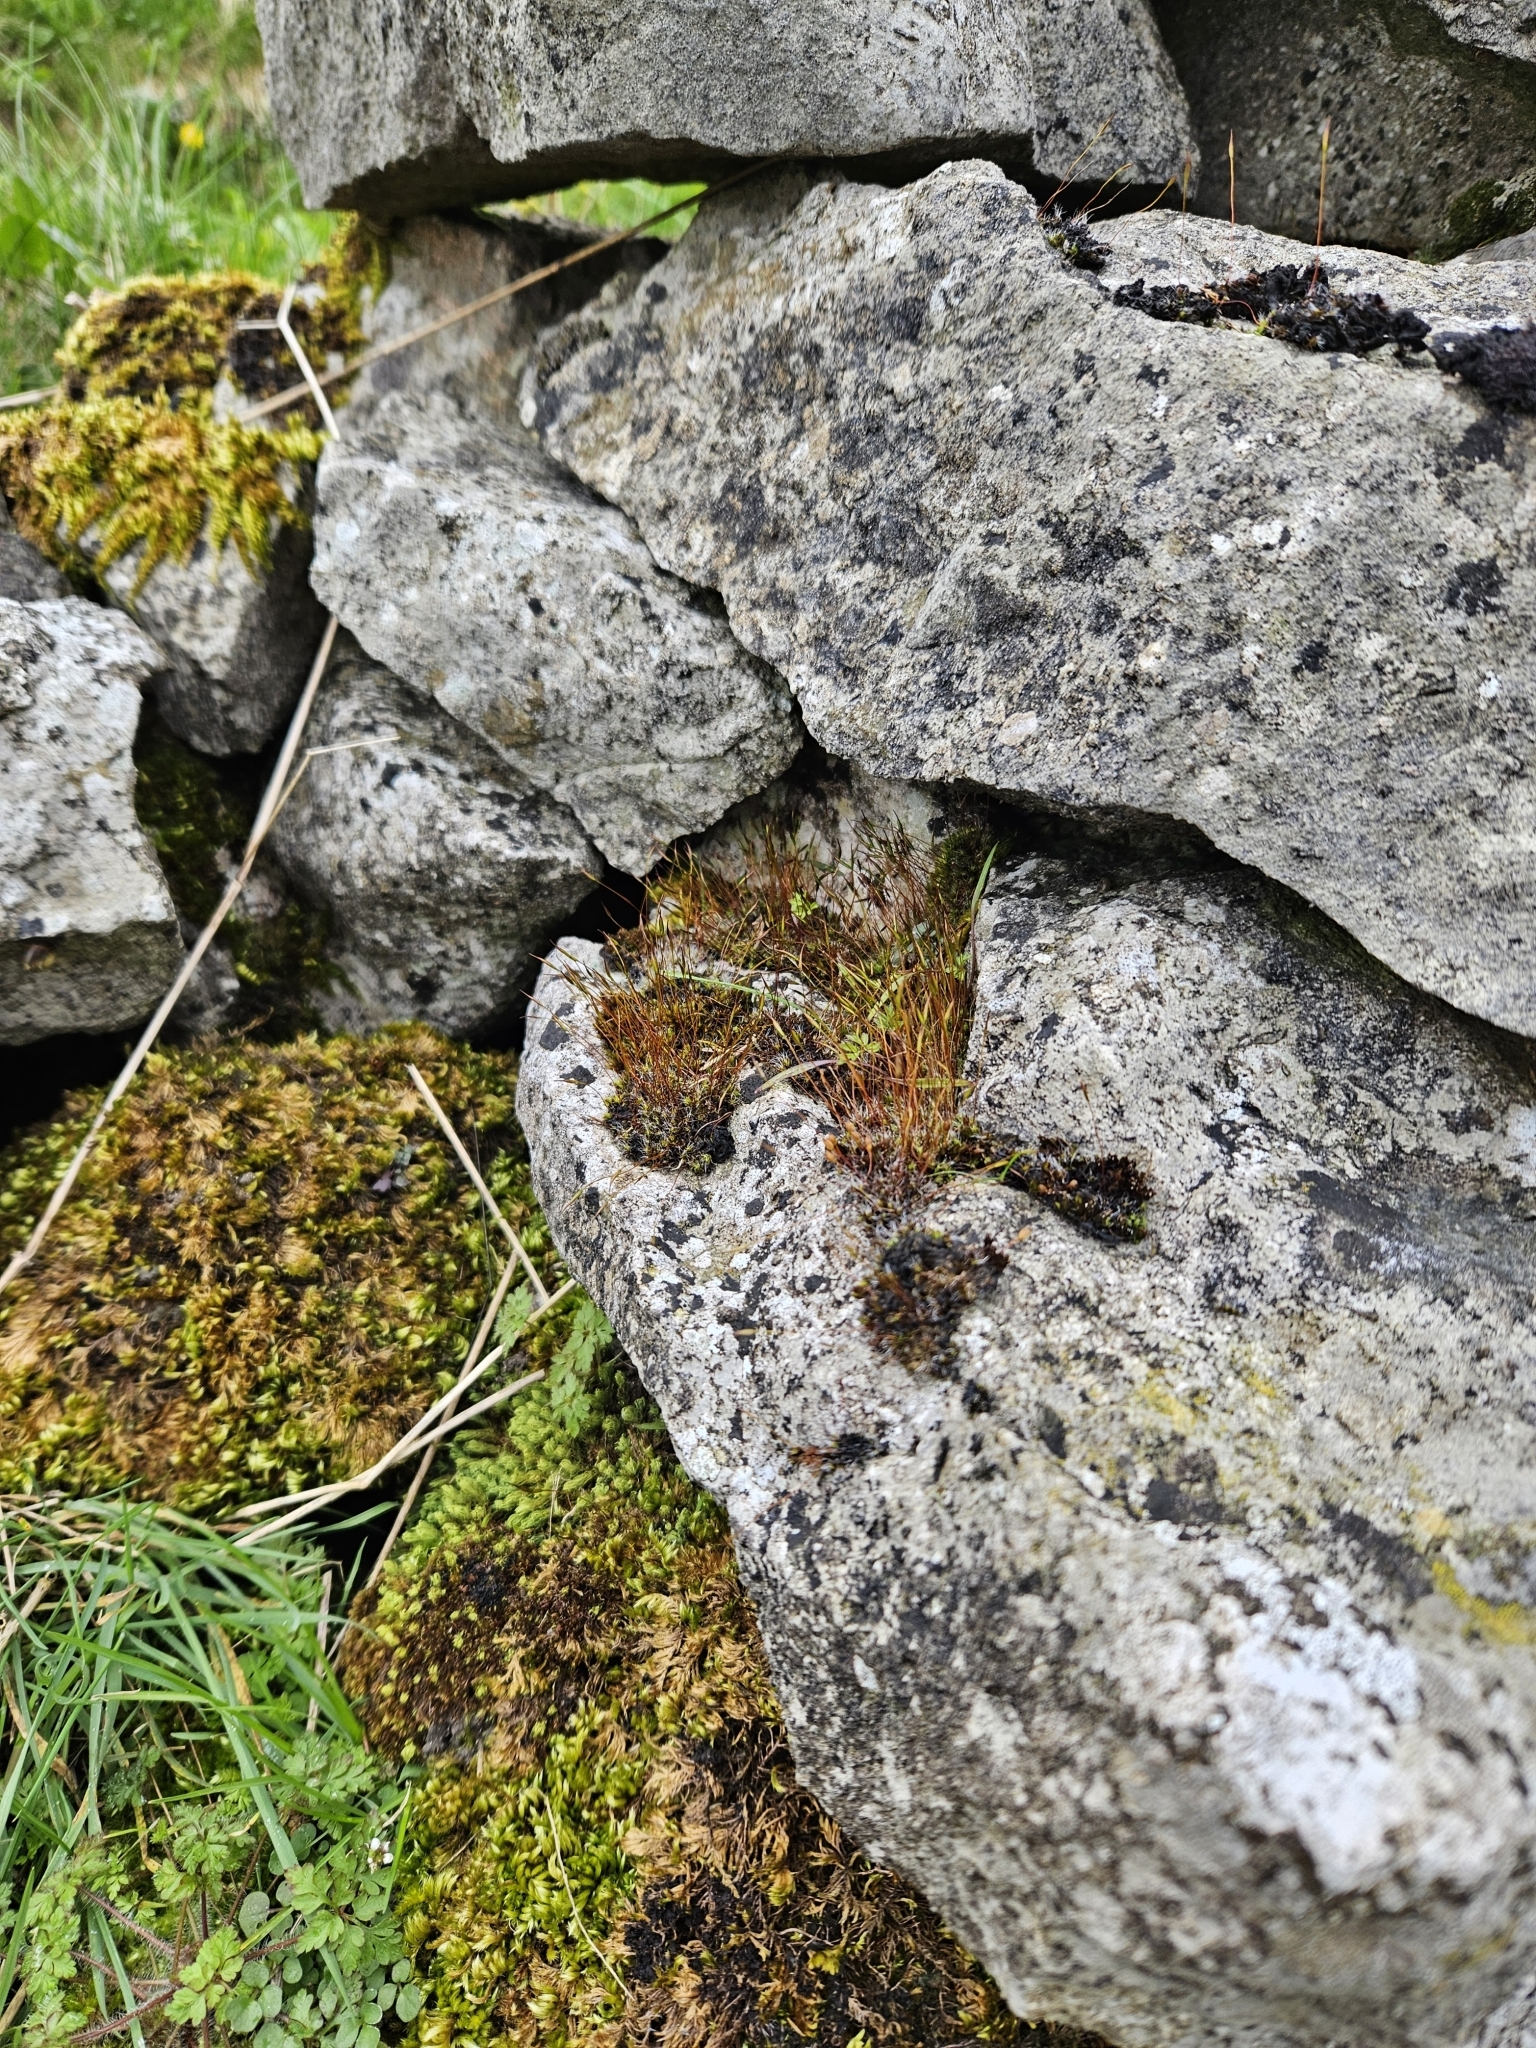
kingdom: Plantae
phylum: Bryophyta
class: Bryopsida
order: Pottiales
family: Pottiaceae
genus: Tortula
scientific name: Tortula muralis
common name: Wall screw-moss
